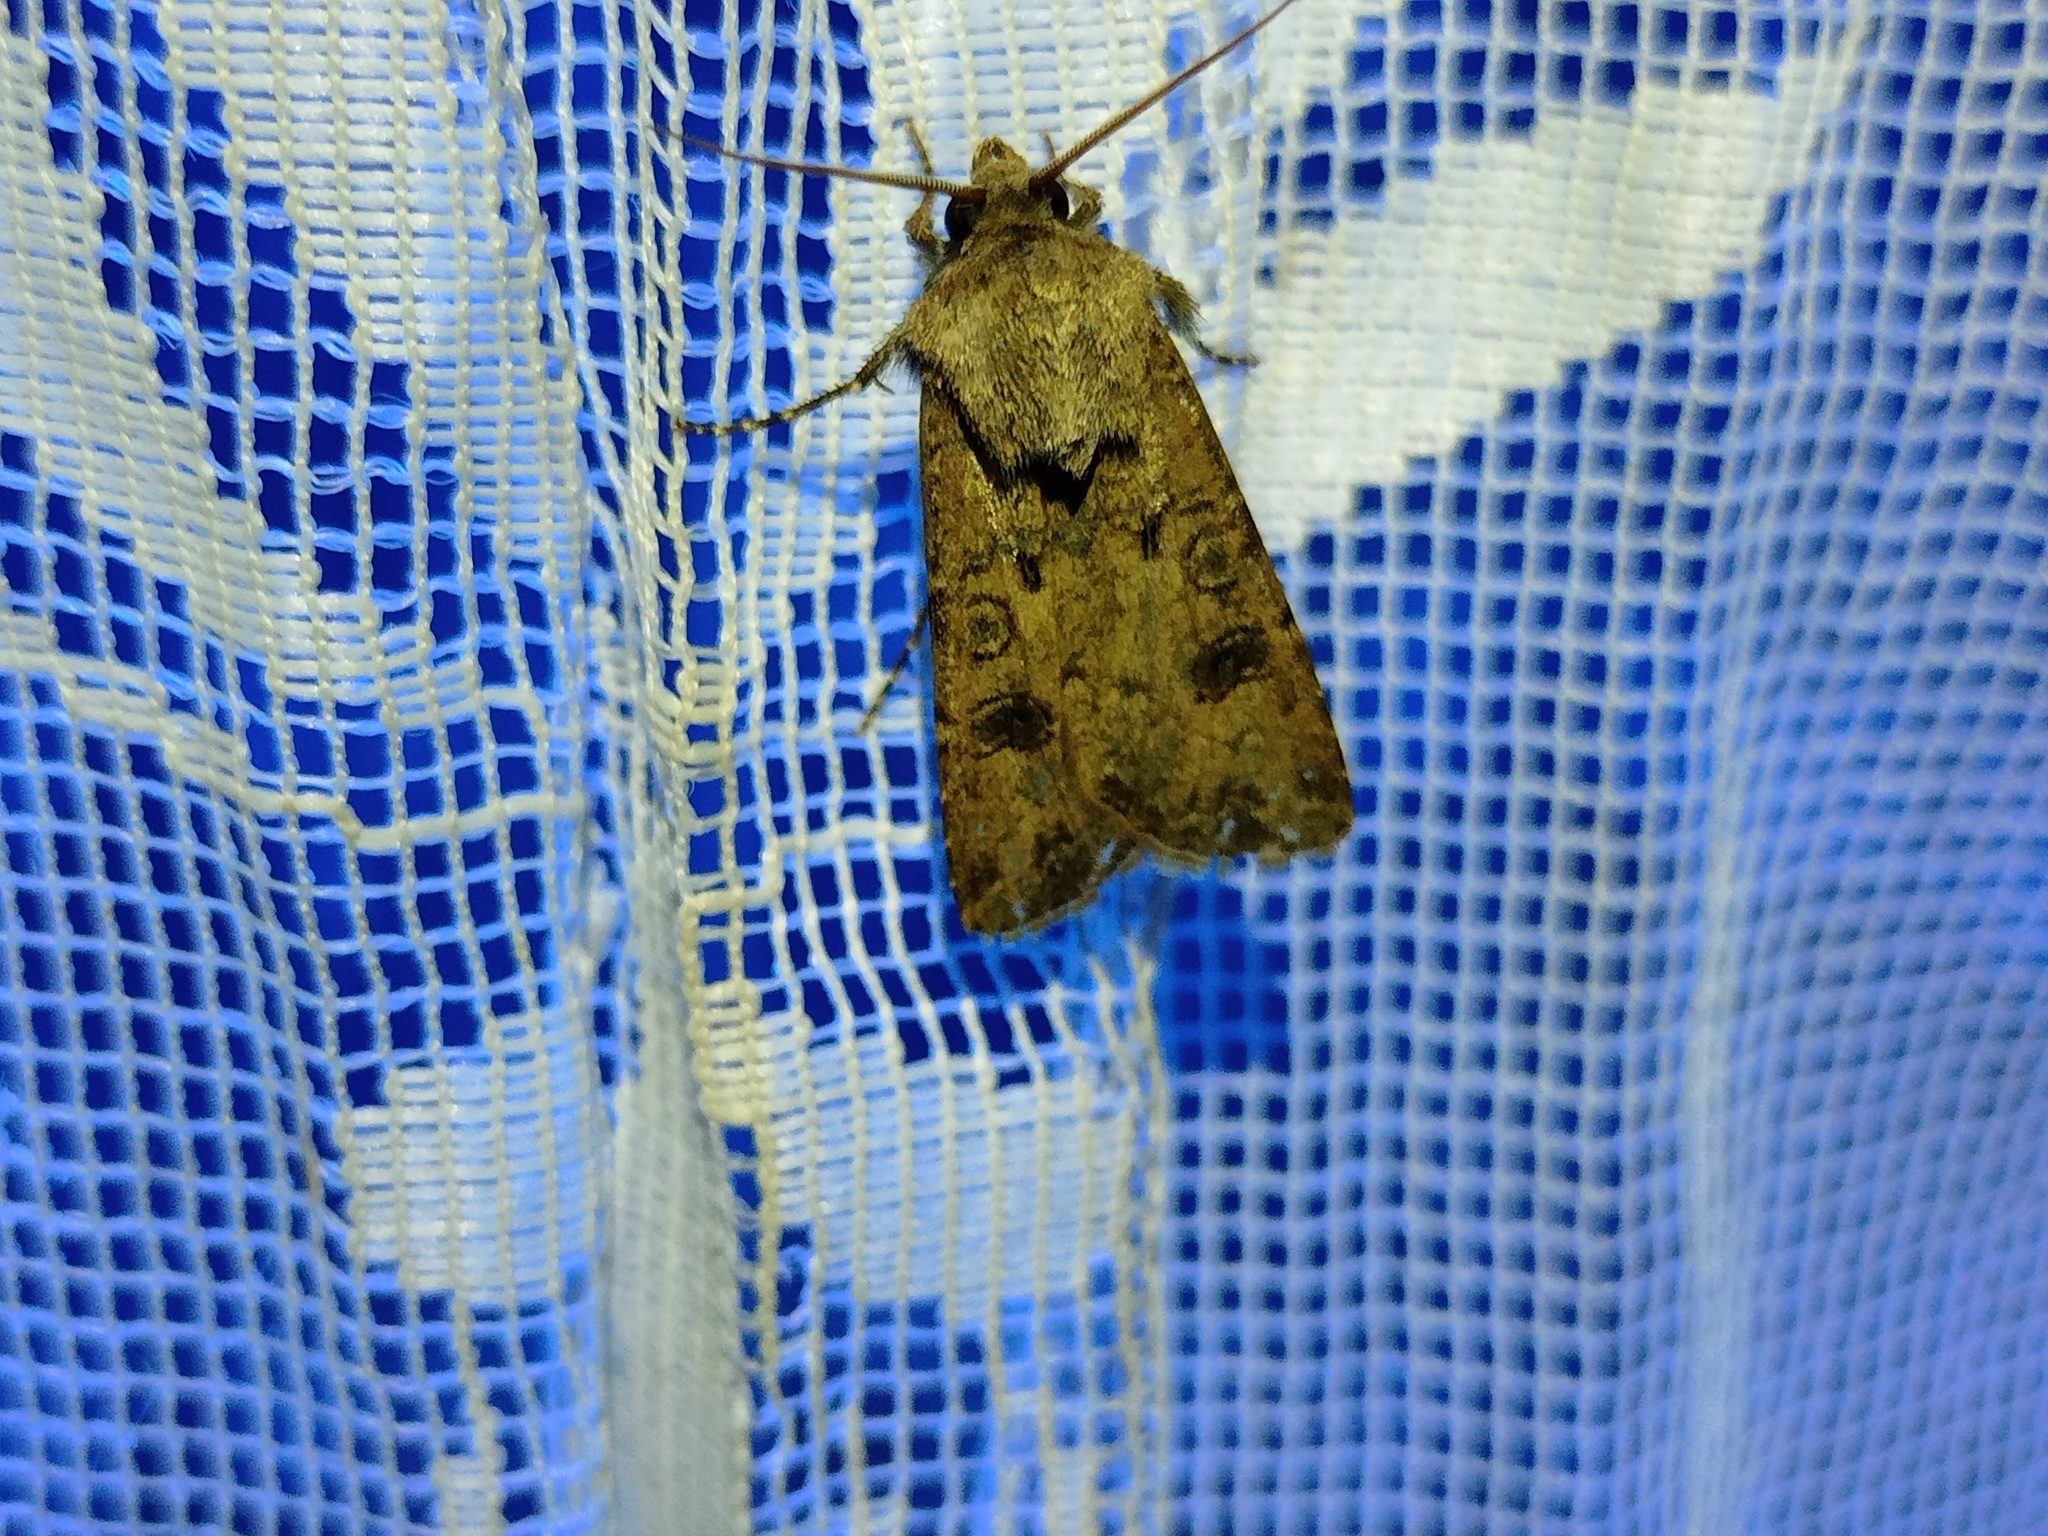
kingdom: Animalia
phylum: Arthropoda
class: Insecta
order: Lepidoptera
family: Noctuidae
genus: Agrotis
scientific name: Agrotis segetum
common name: Turnip moth
